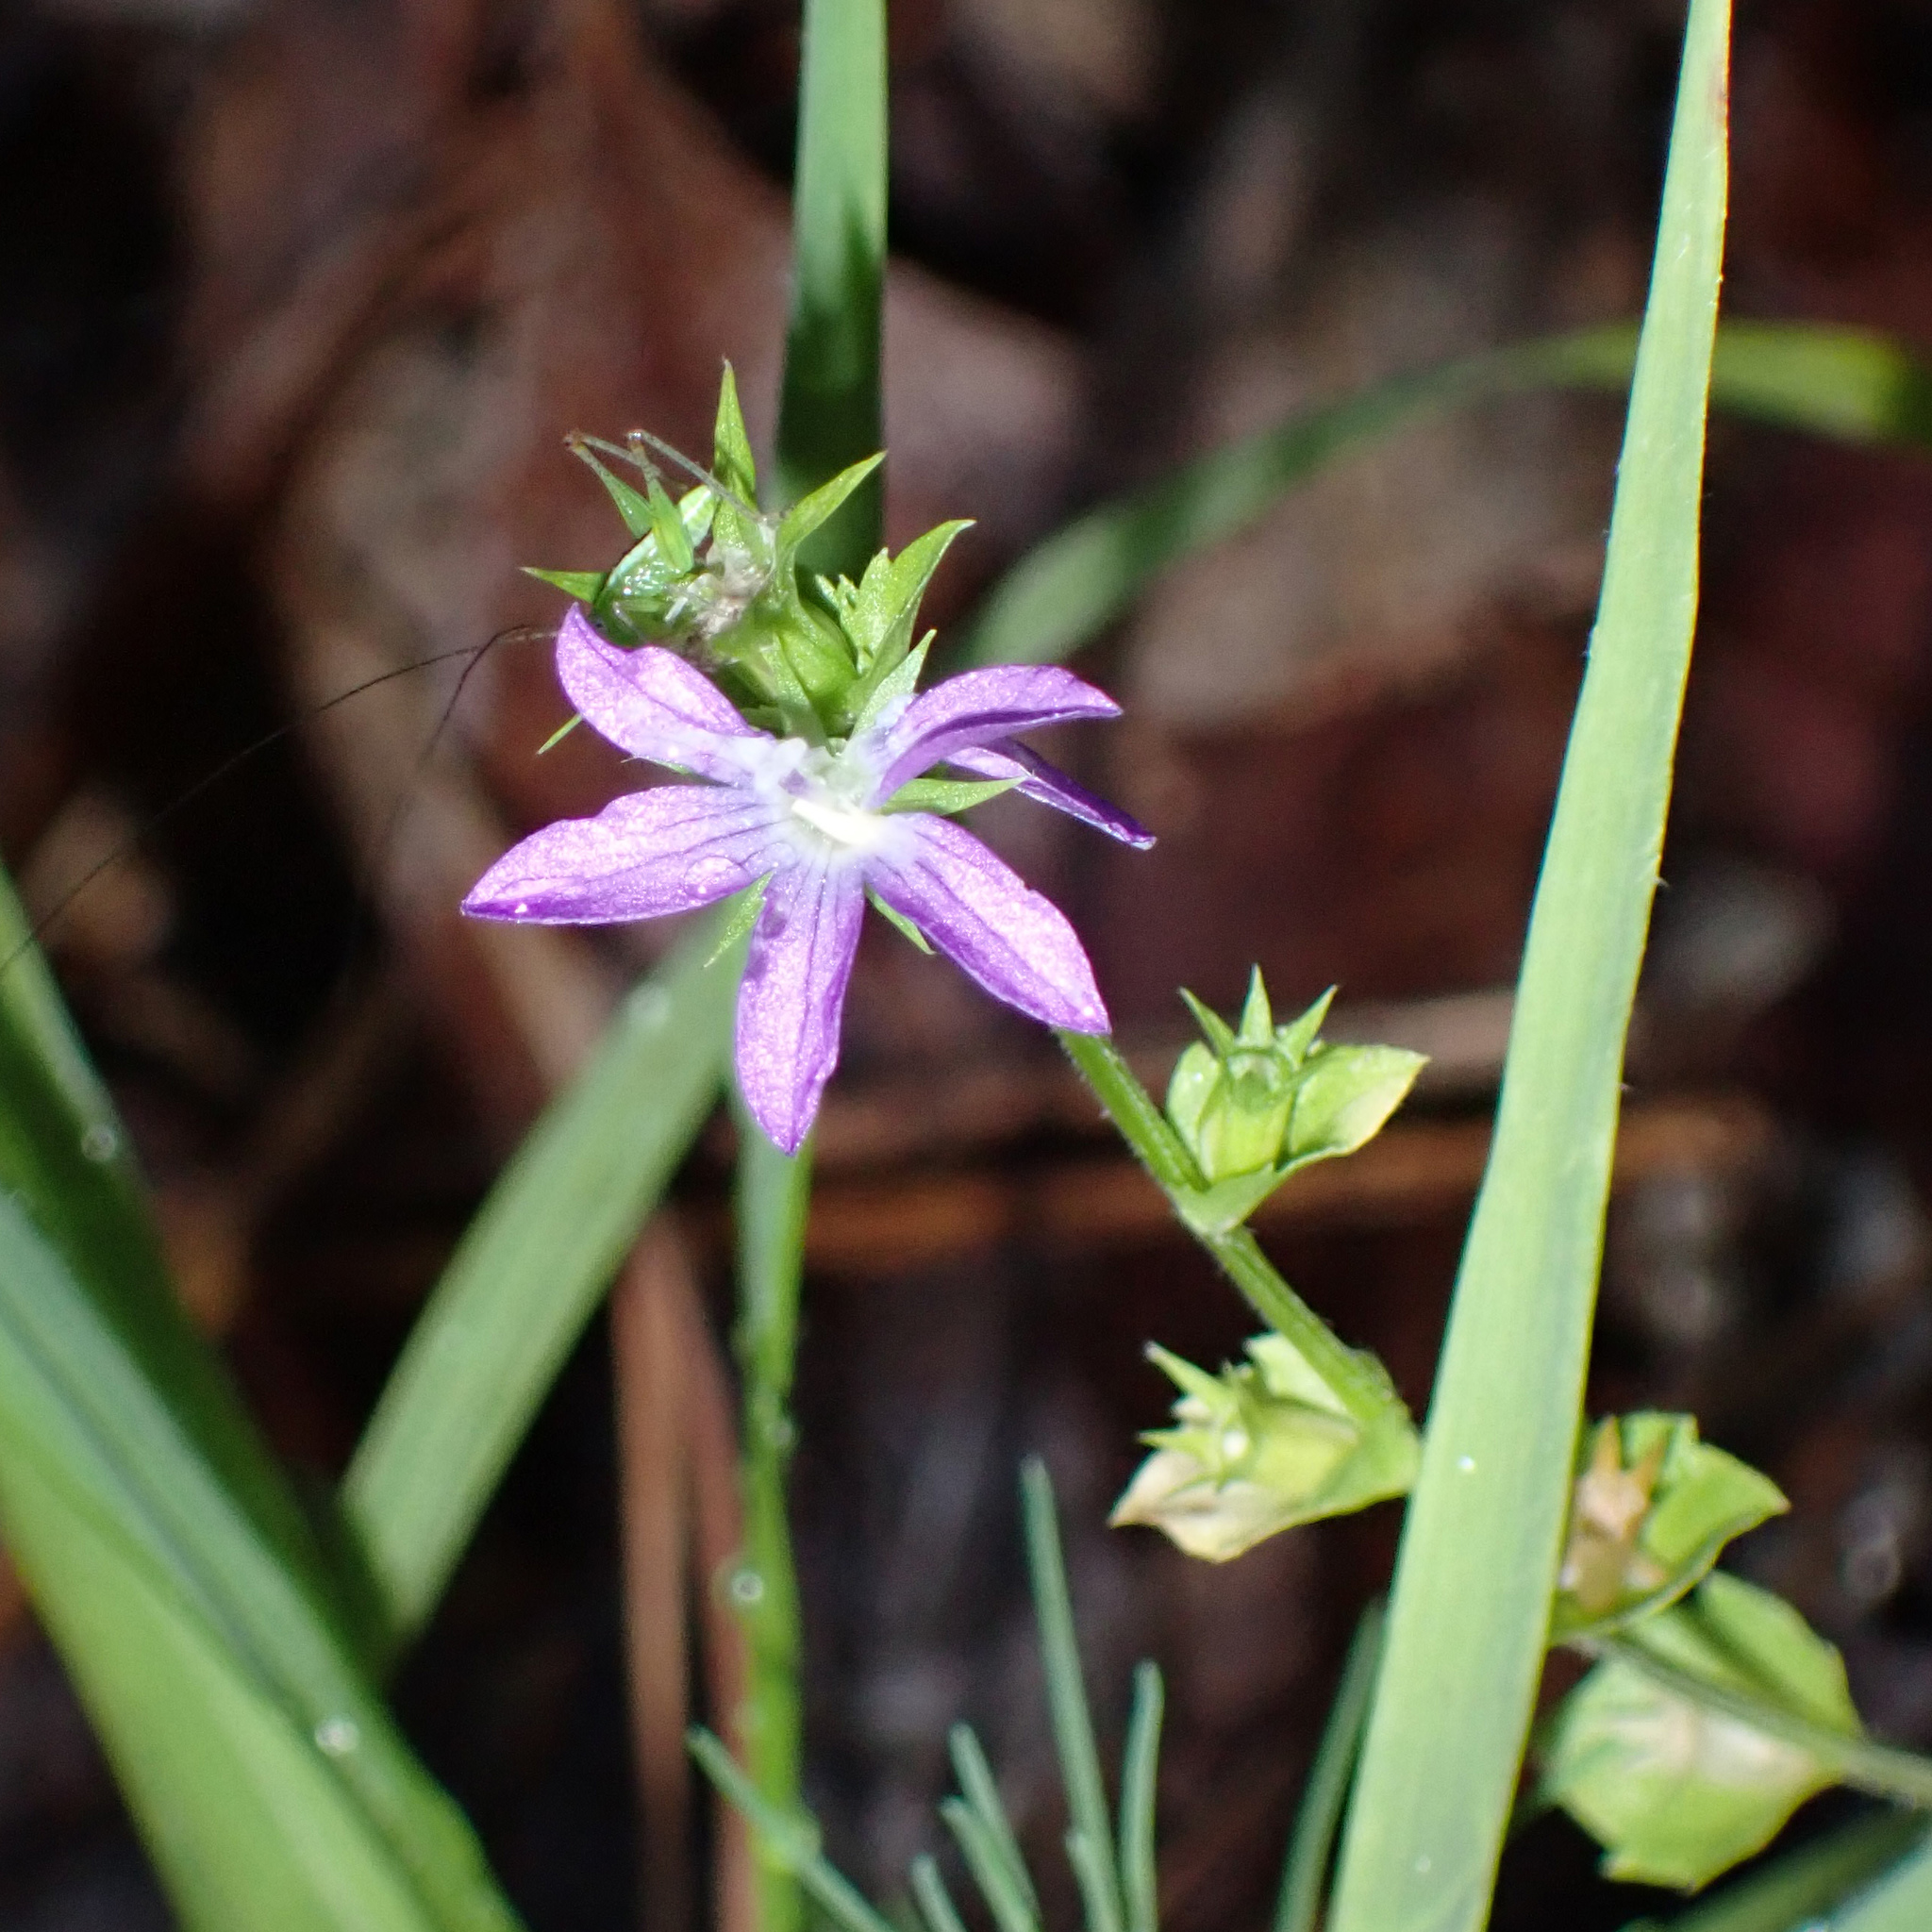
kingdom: Plantae
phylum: Tracheophyta
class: Magnoliopsida
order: Asterales
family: Campanulaceae
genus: Triodanis
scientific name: Triodanis perfoliata
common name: Clasping venus' looking-glass
